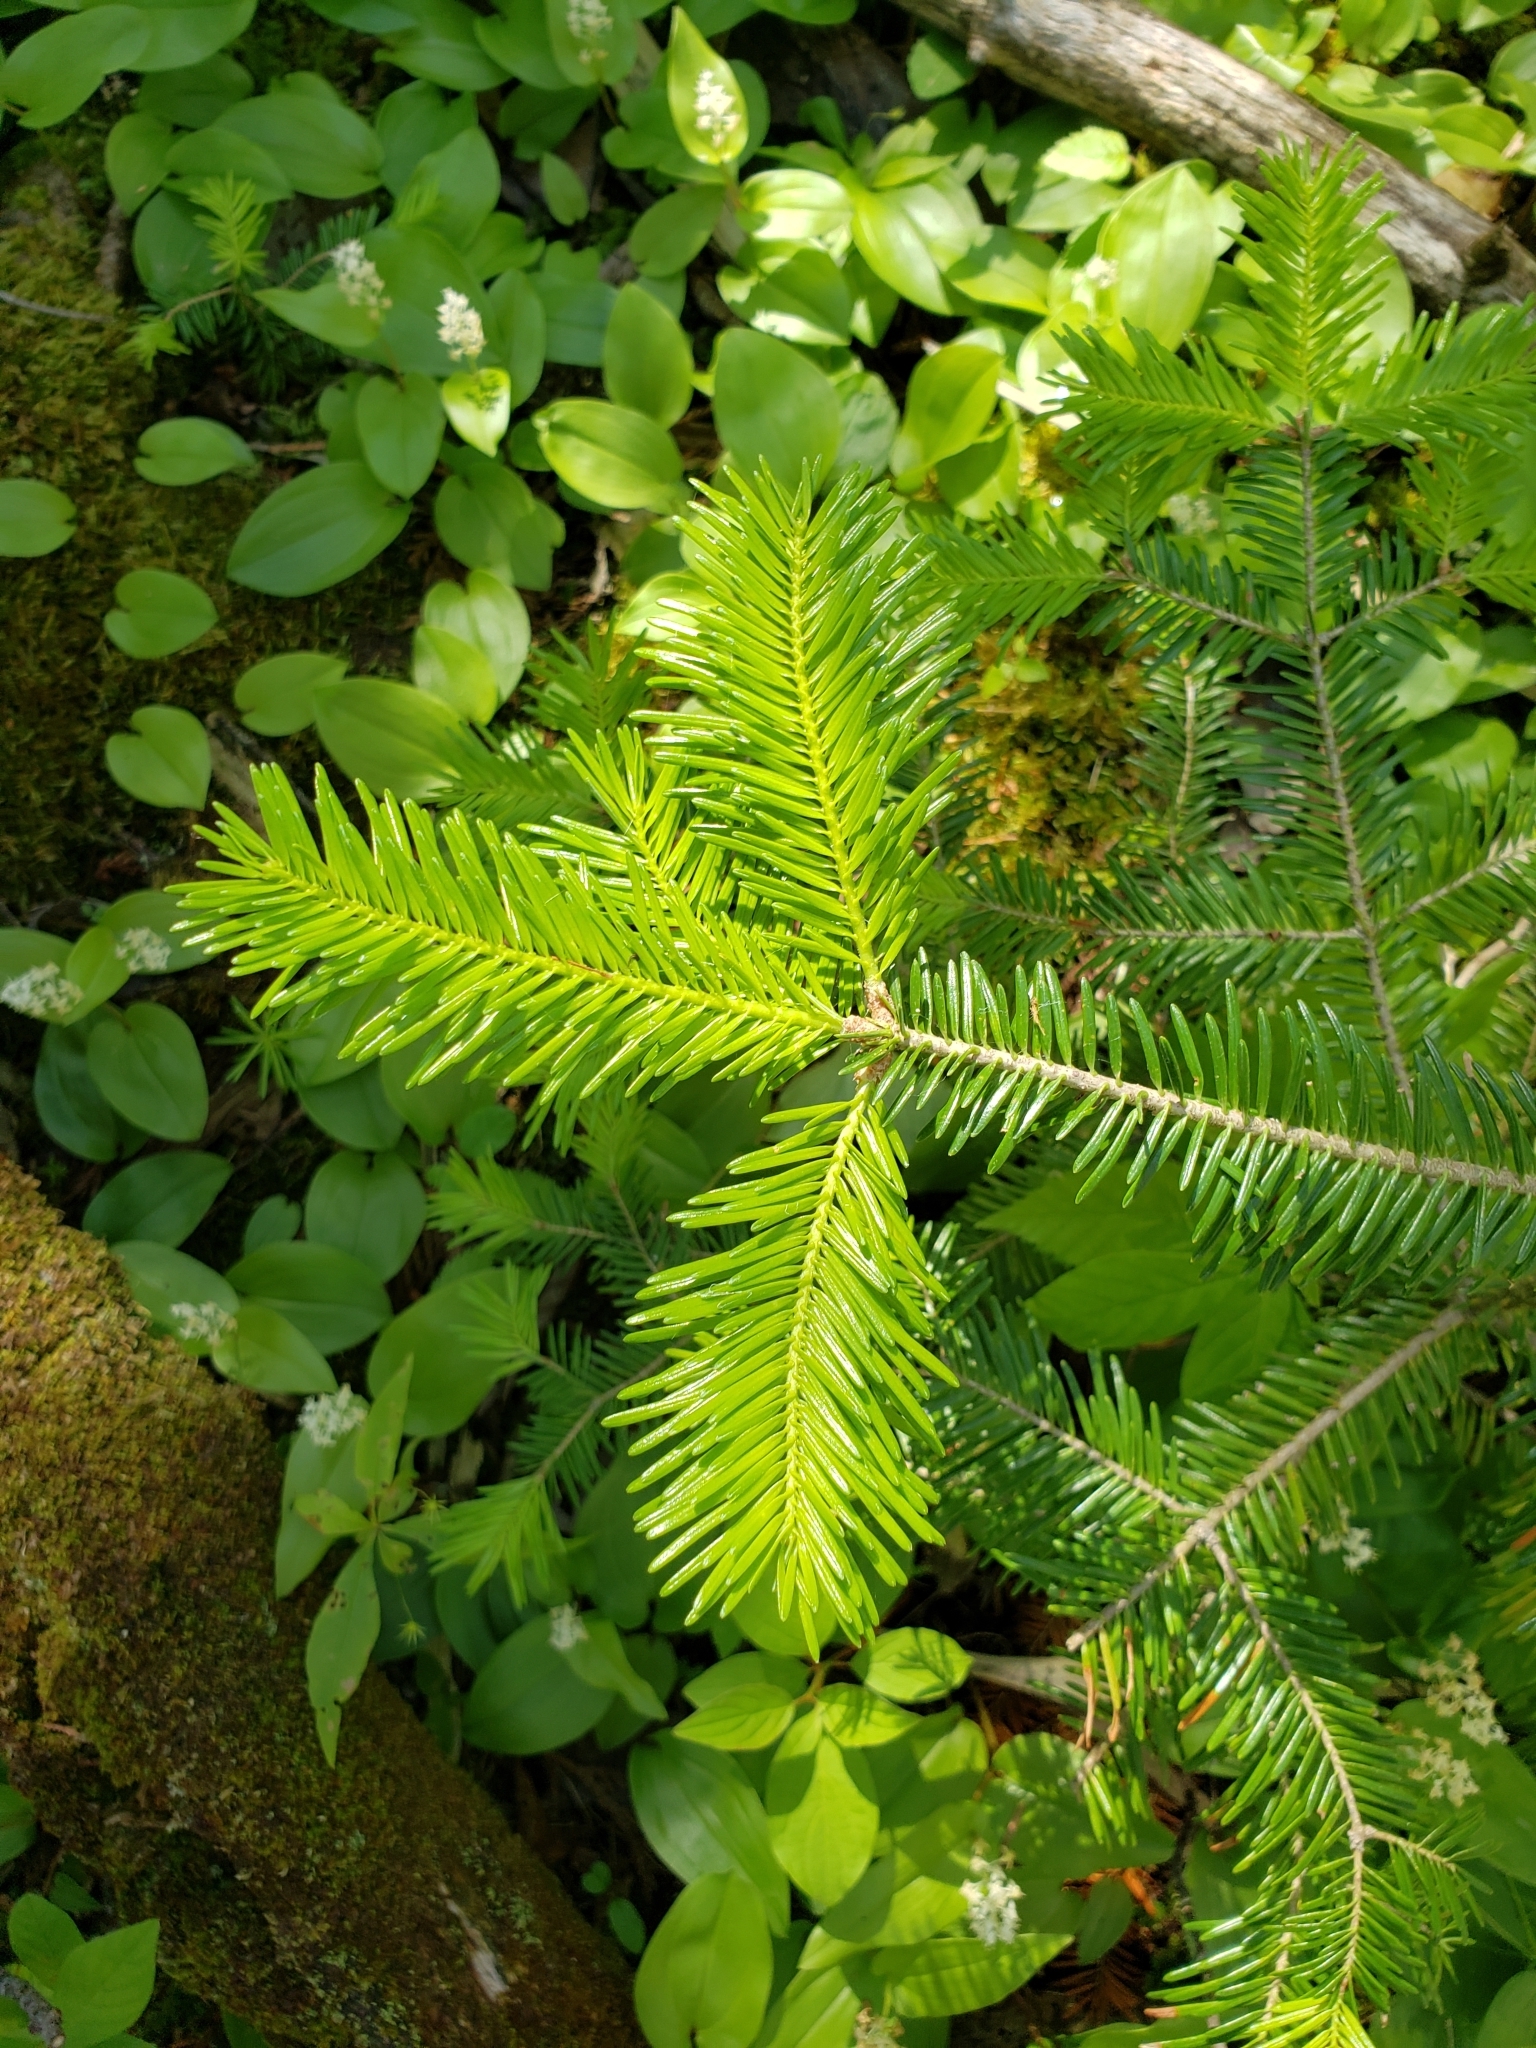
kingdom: Plantae
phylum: Tracheophyta
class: Pinopsida
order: Pinales
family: Pinaceae
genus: Abies
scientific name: Abies balsamea
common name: Balsam fir
